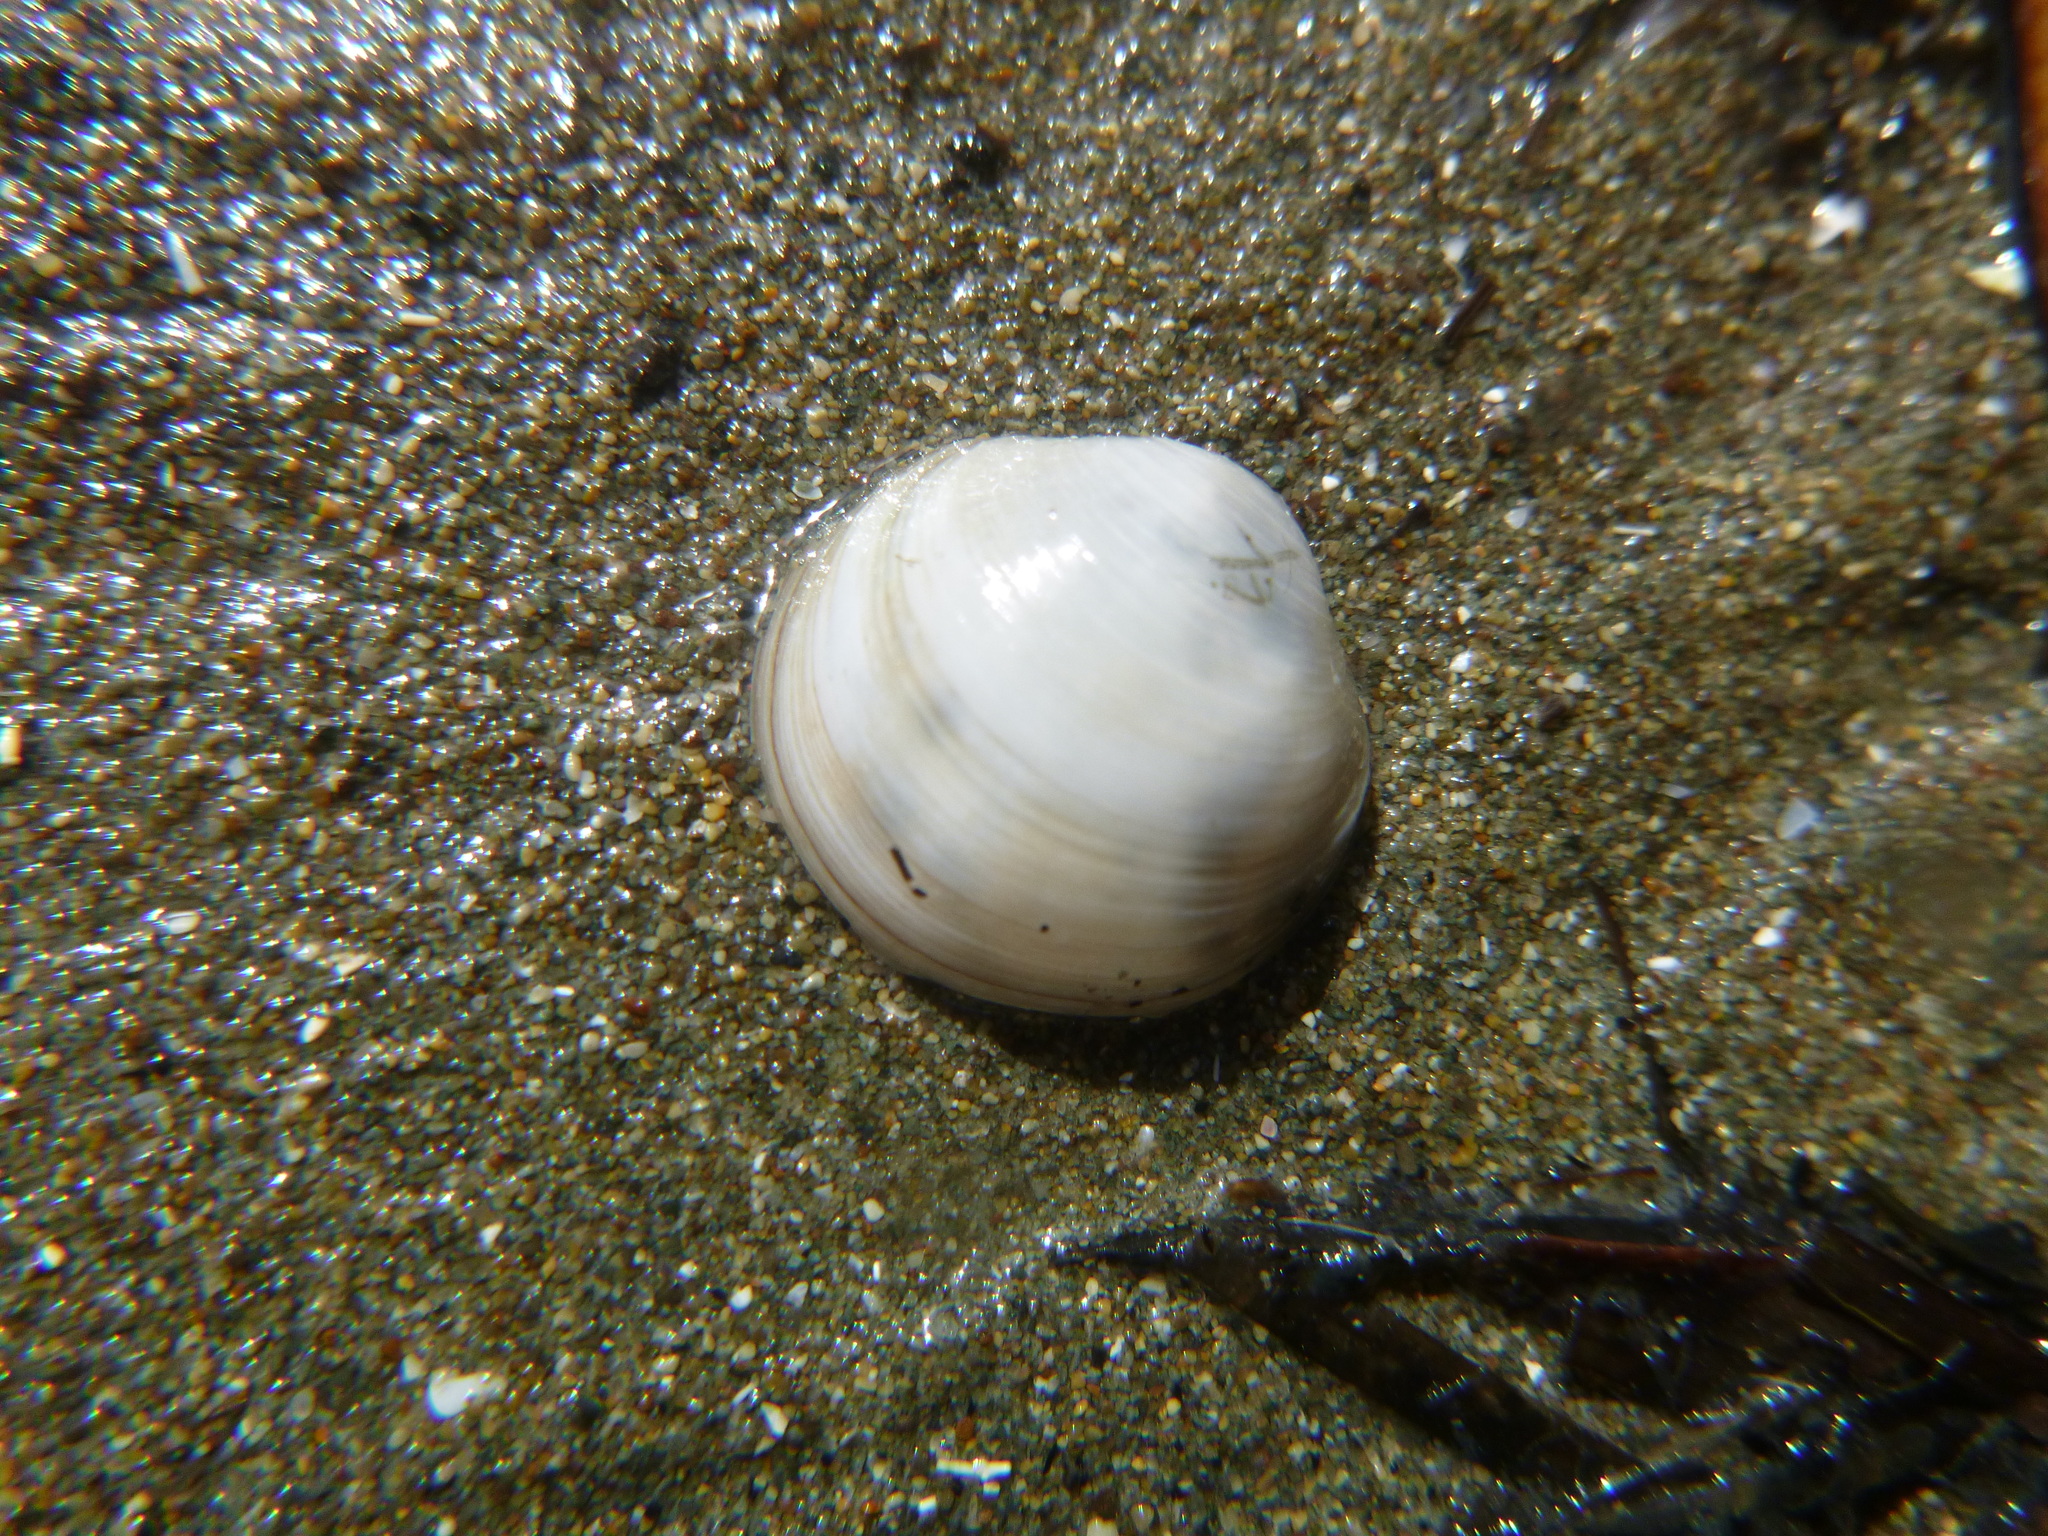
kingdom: Animalia
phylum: Mollusca
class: Bivalvia
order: Venerida
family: Ungulinidae
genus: Zemysina
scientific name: Zemysina striatula
